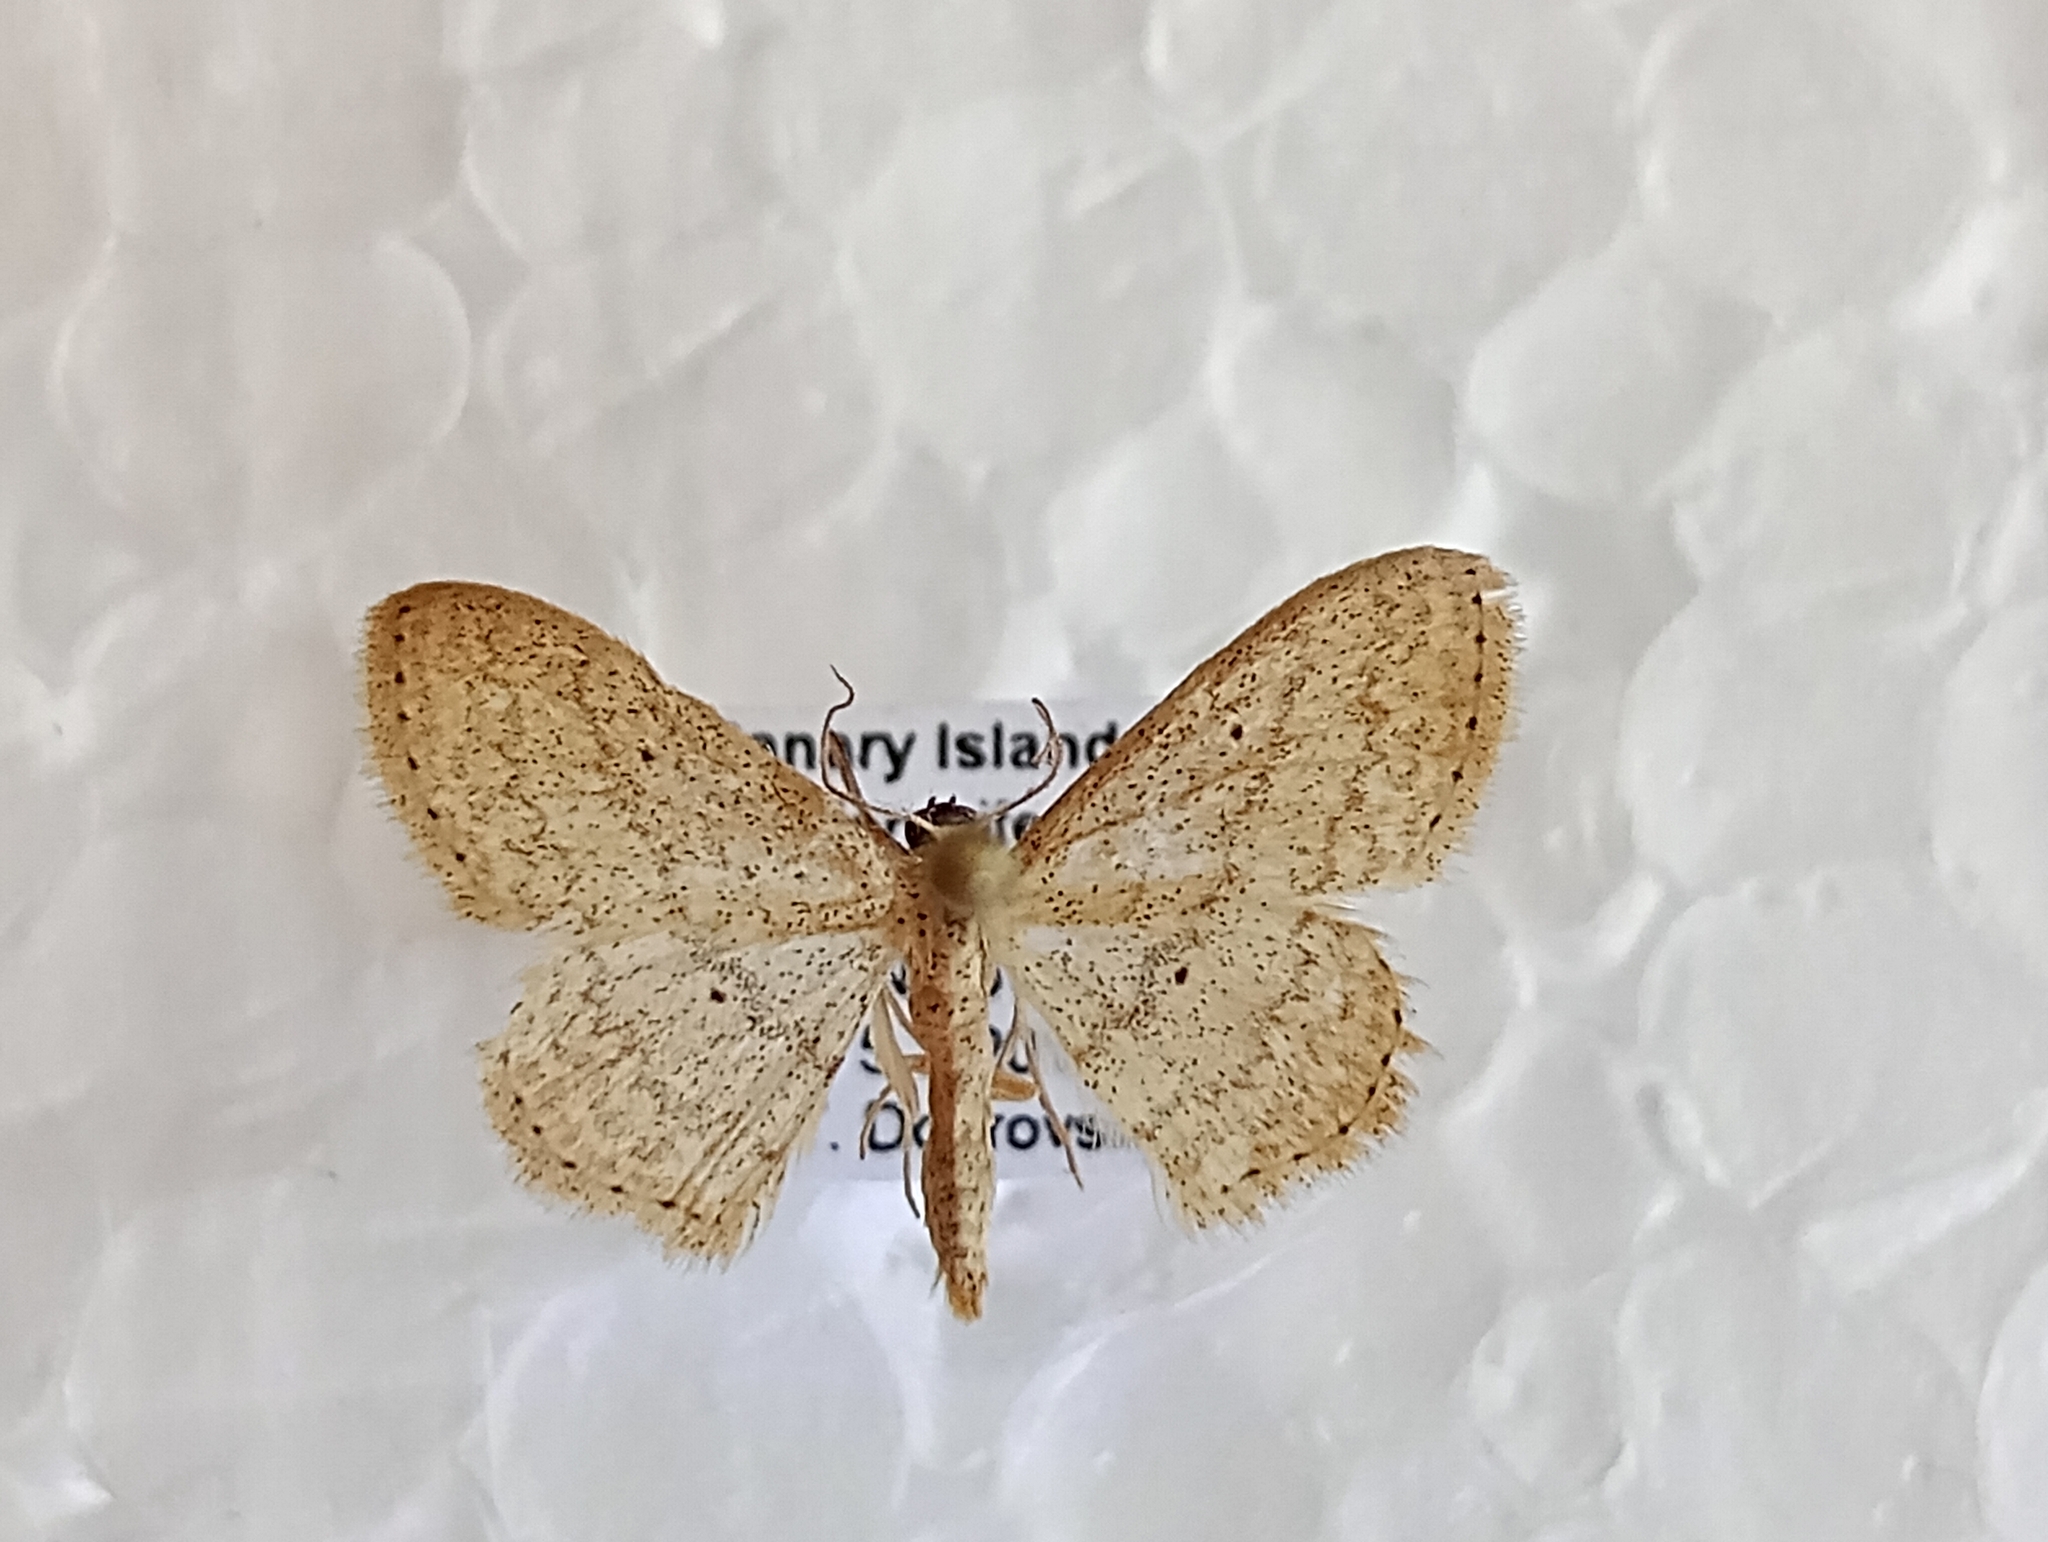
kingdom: Animalia
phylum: Arthropoda
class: Insecta
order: Lepidoptera
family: Geometridae
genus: Scopula
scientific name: Scopula minorata
